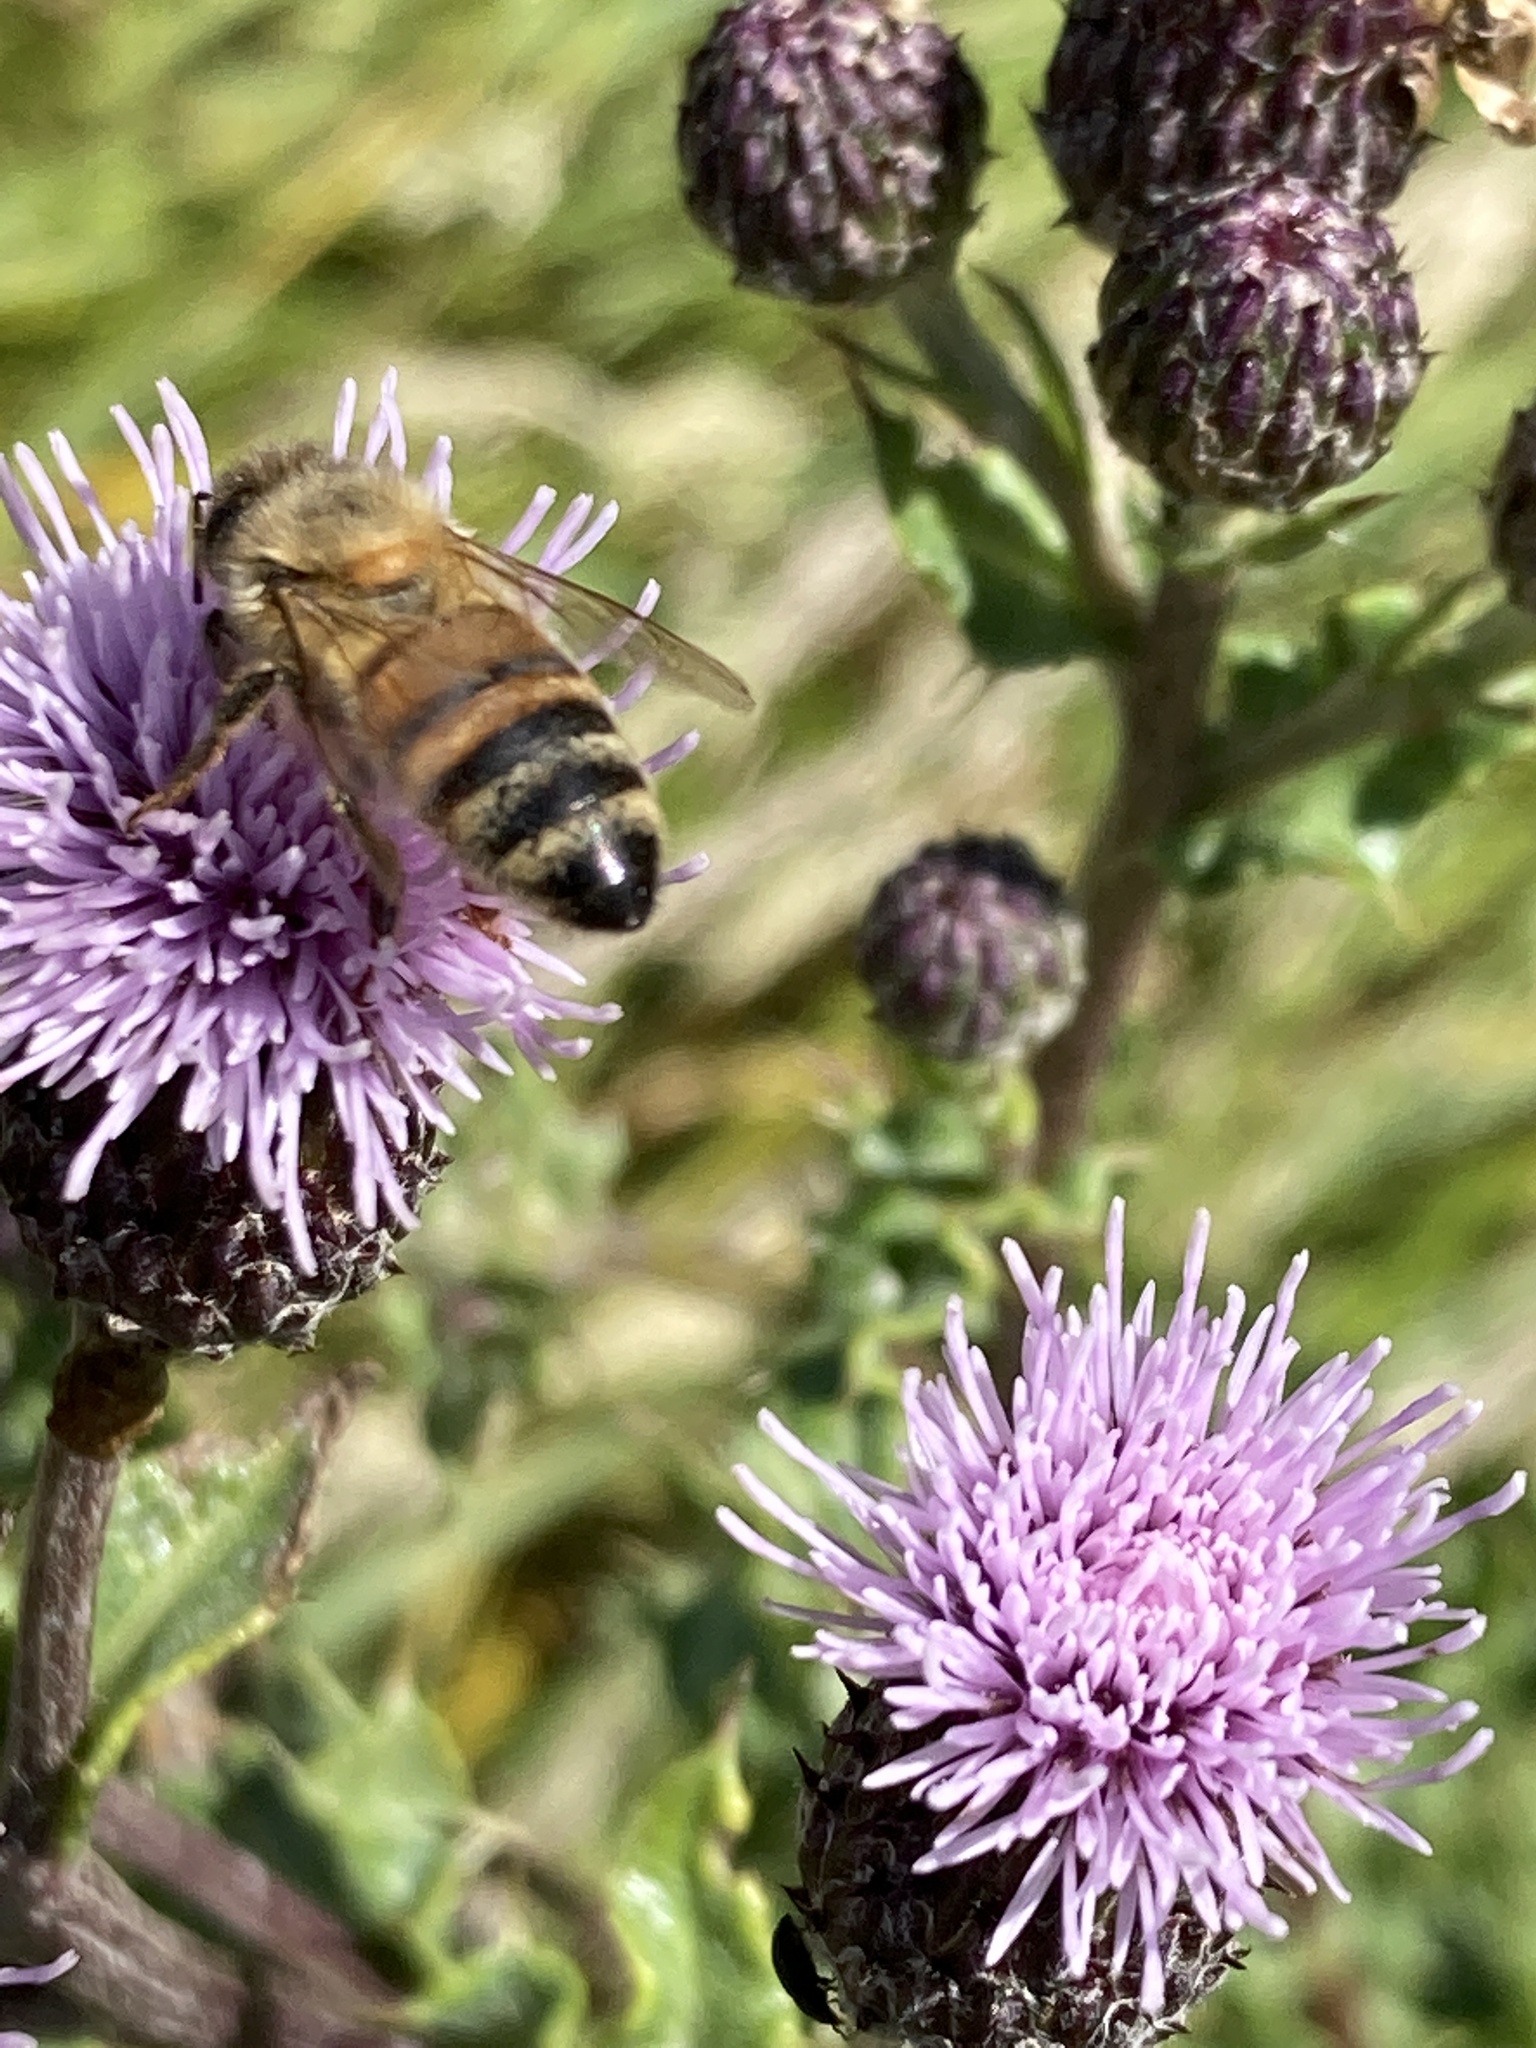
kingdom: Animalia
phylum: Arthropoda
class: Insecta
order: Hymenoptera
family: Apidae
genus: Apis
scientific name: Apis mellifera
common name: Honey bee
